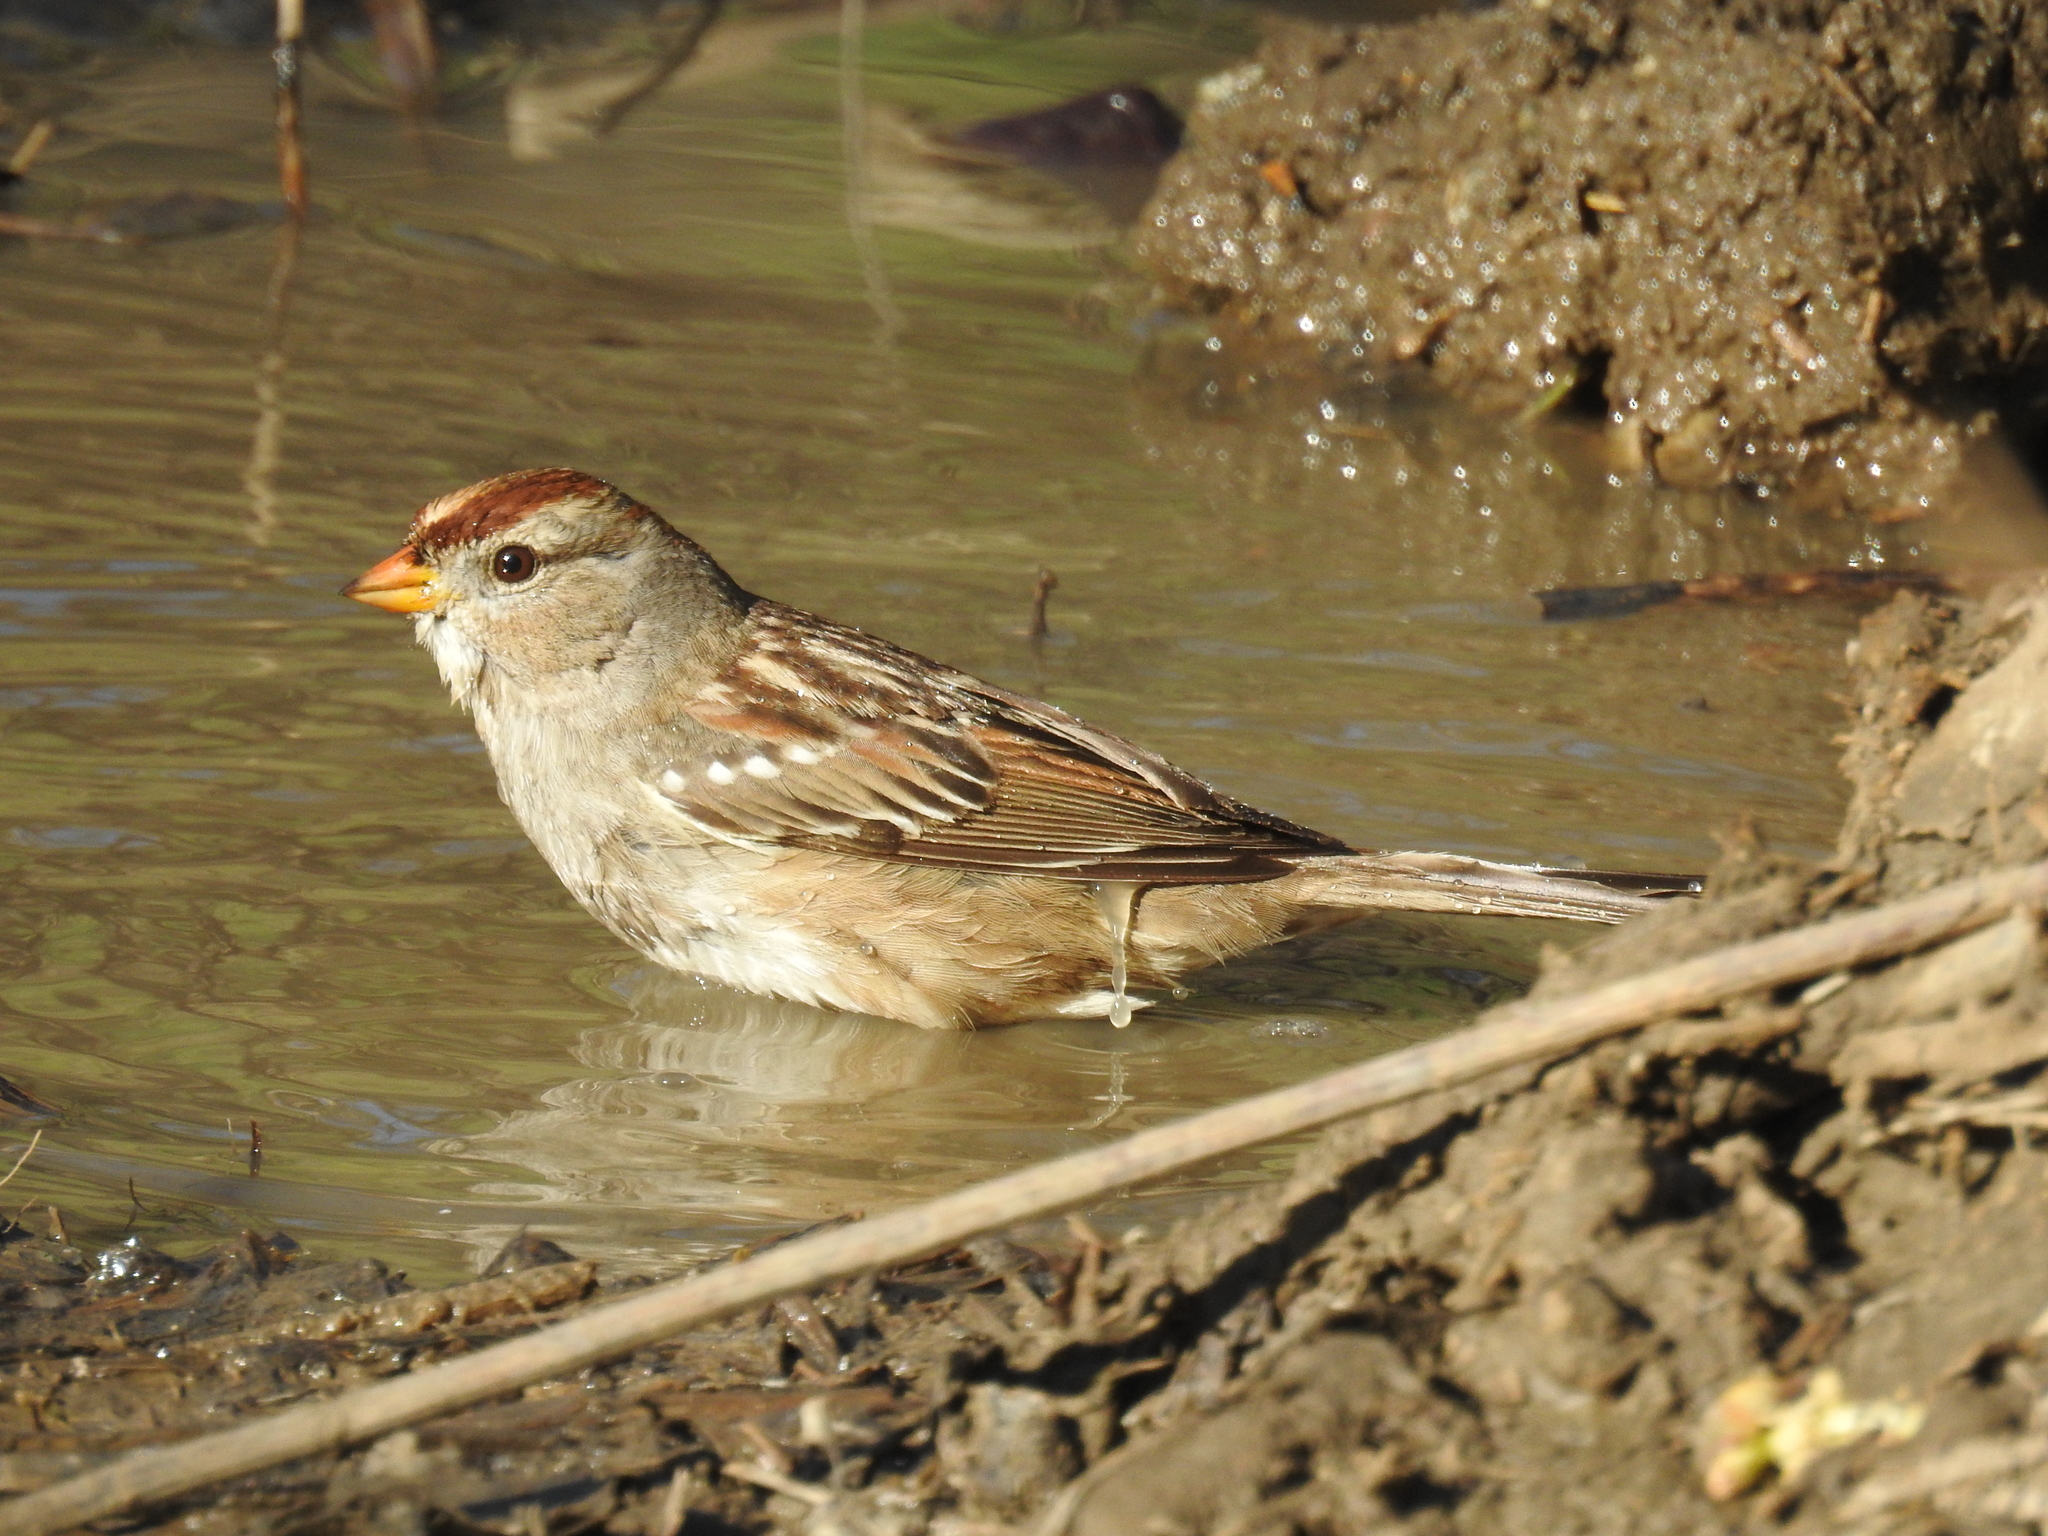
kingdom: Animalia
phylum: Chordata
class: Aves
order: Passeriformes
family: Passerellidae
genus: Zonotrichia
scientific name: Zonotrichia leucophrys
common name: White-crowned sparrow
